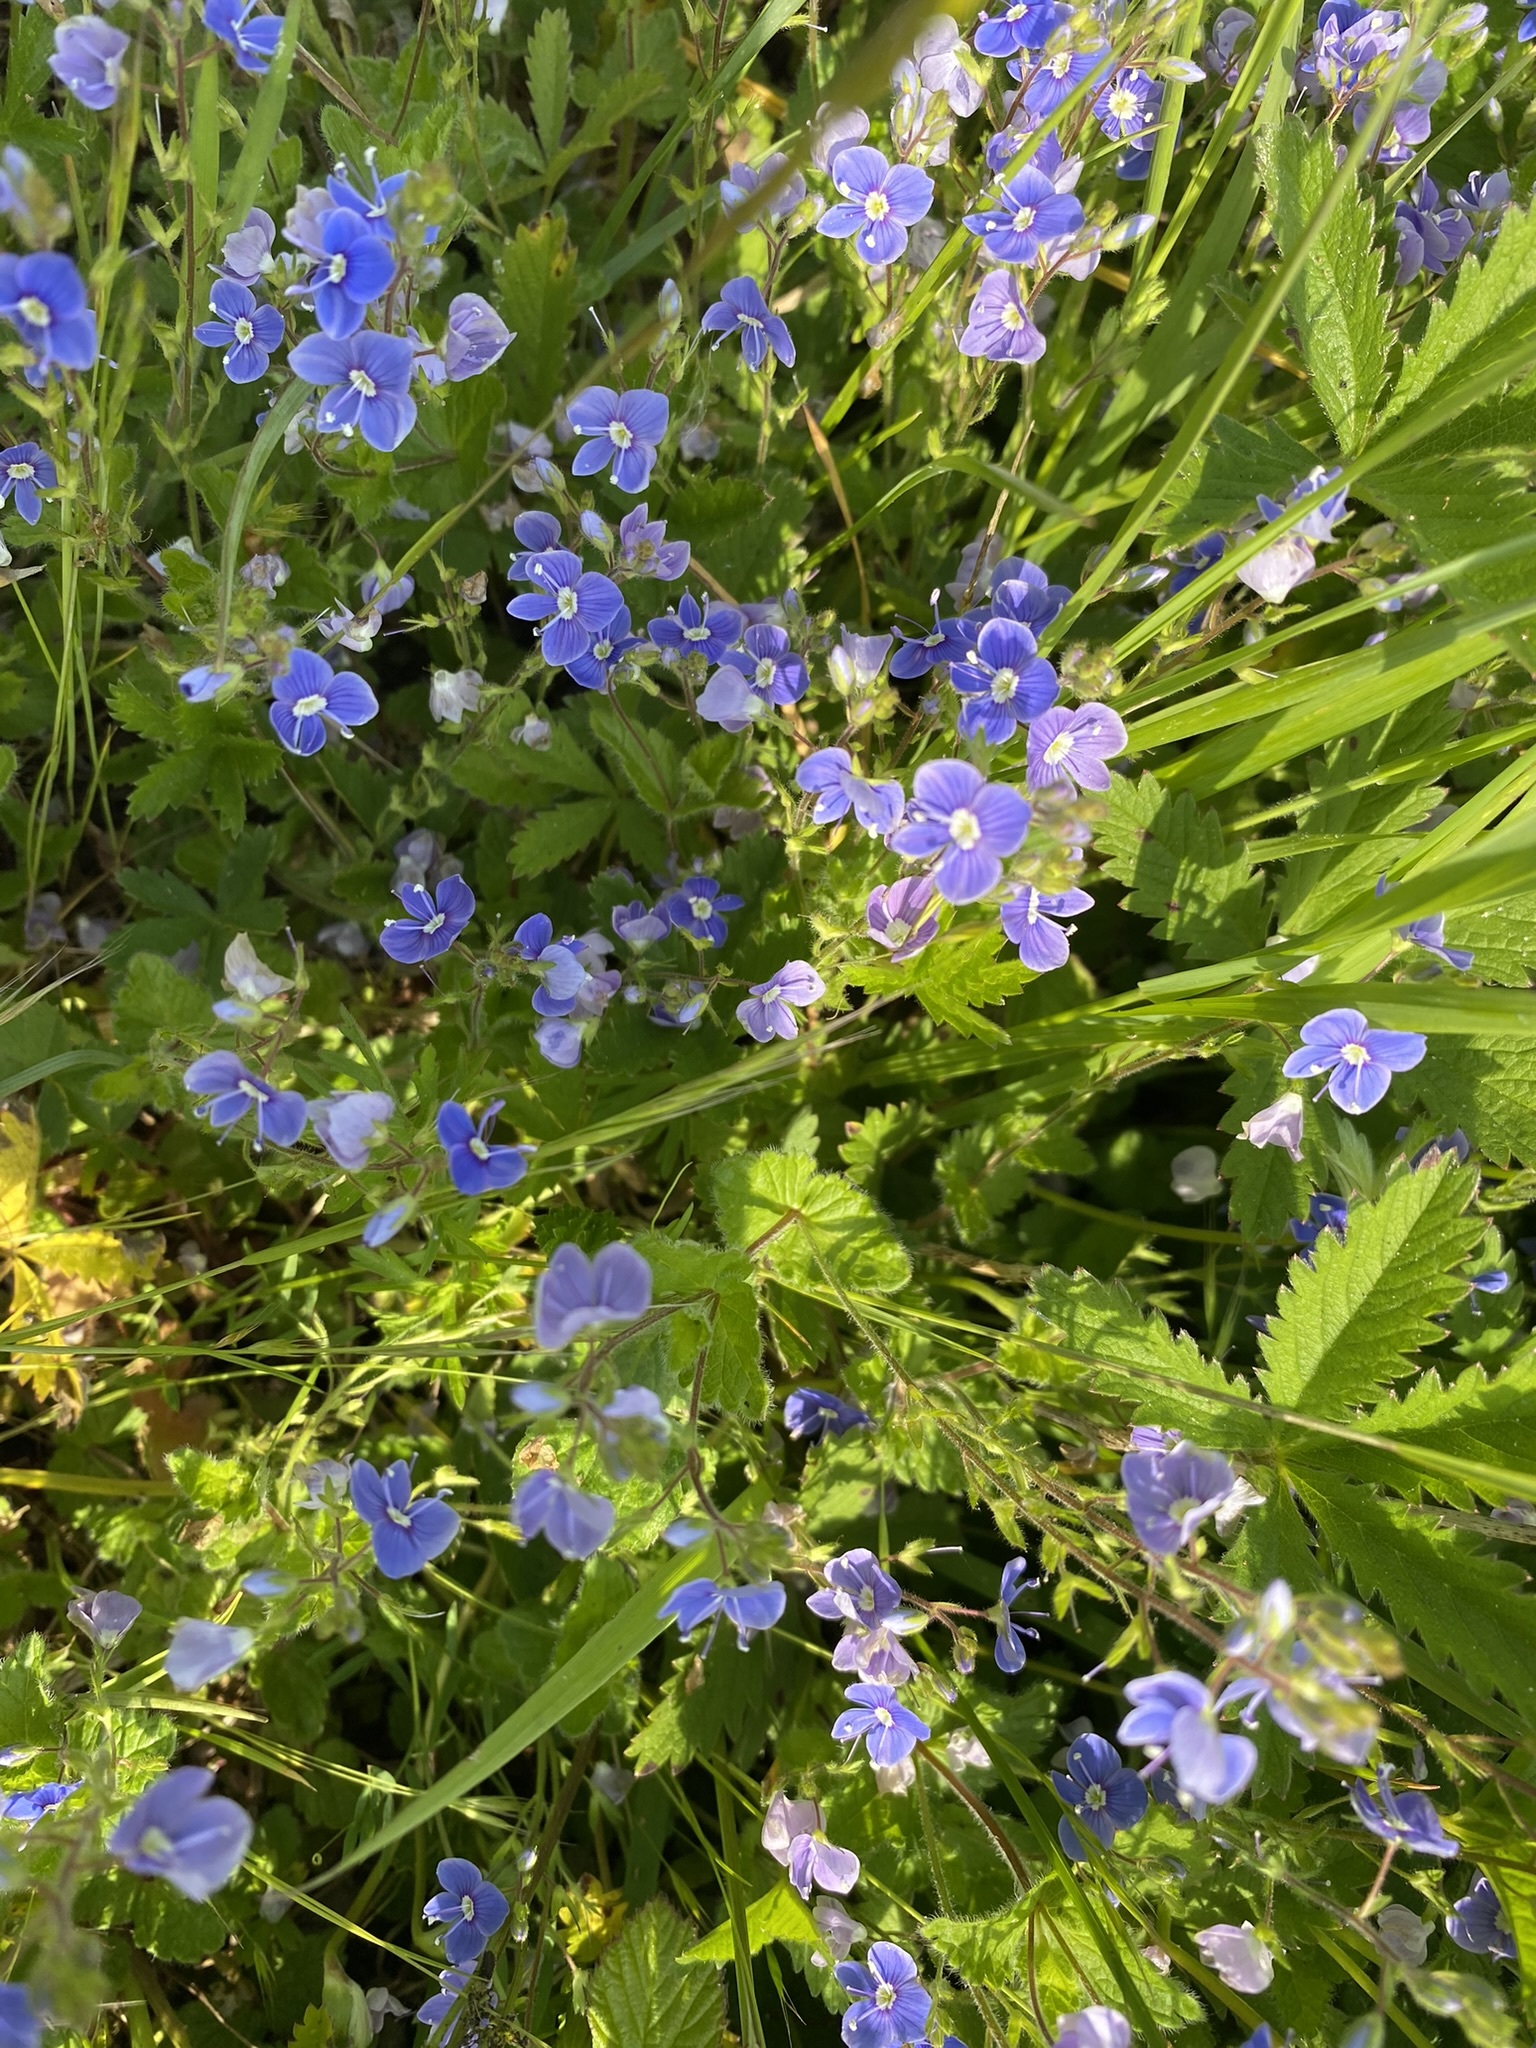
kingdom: Plantae
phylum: Tracheophyta
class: Magnoliopsida
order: Lamiales
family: Plantaginaceae
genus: Veronica
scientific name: Veronica chamaedrys
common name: Germander speedwell
